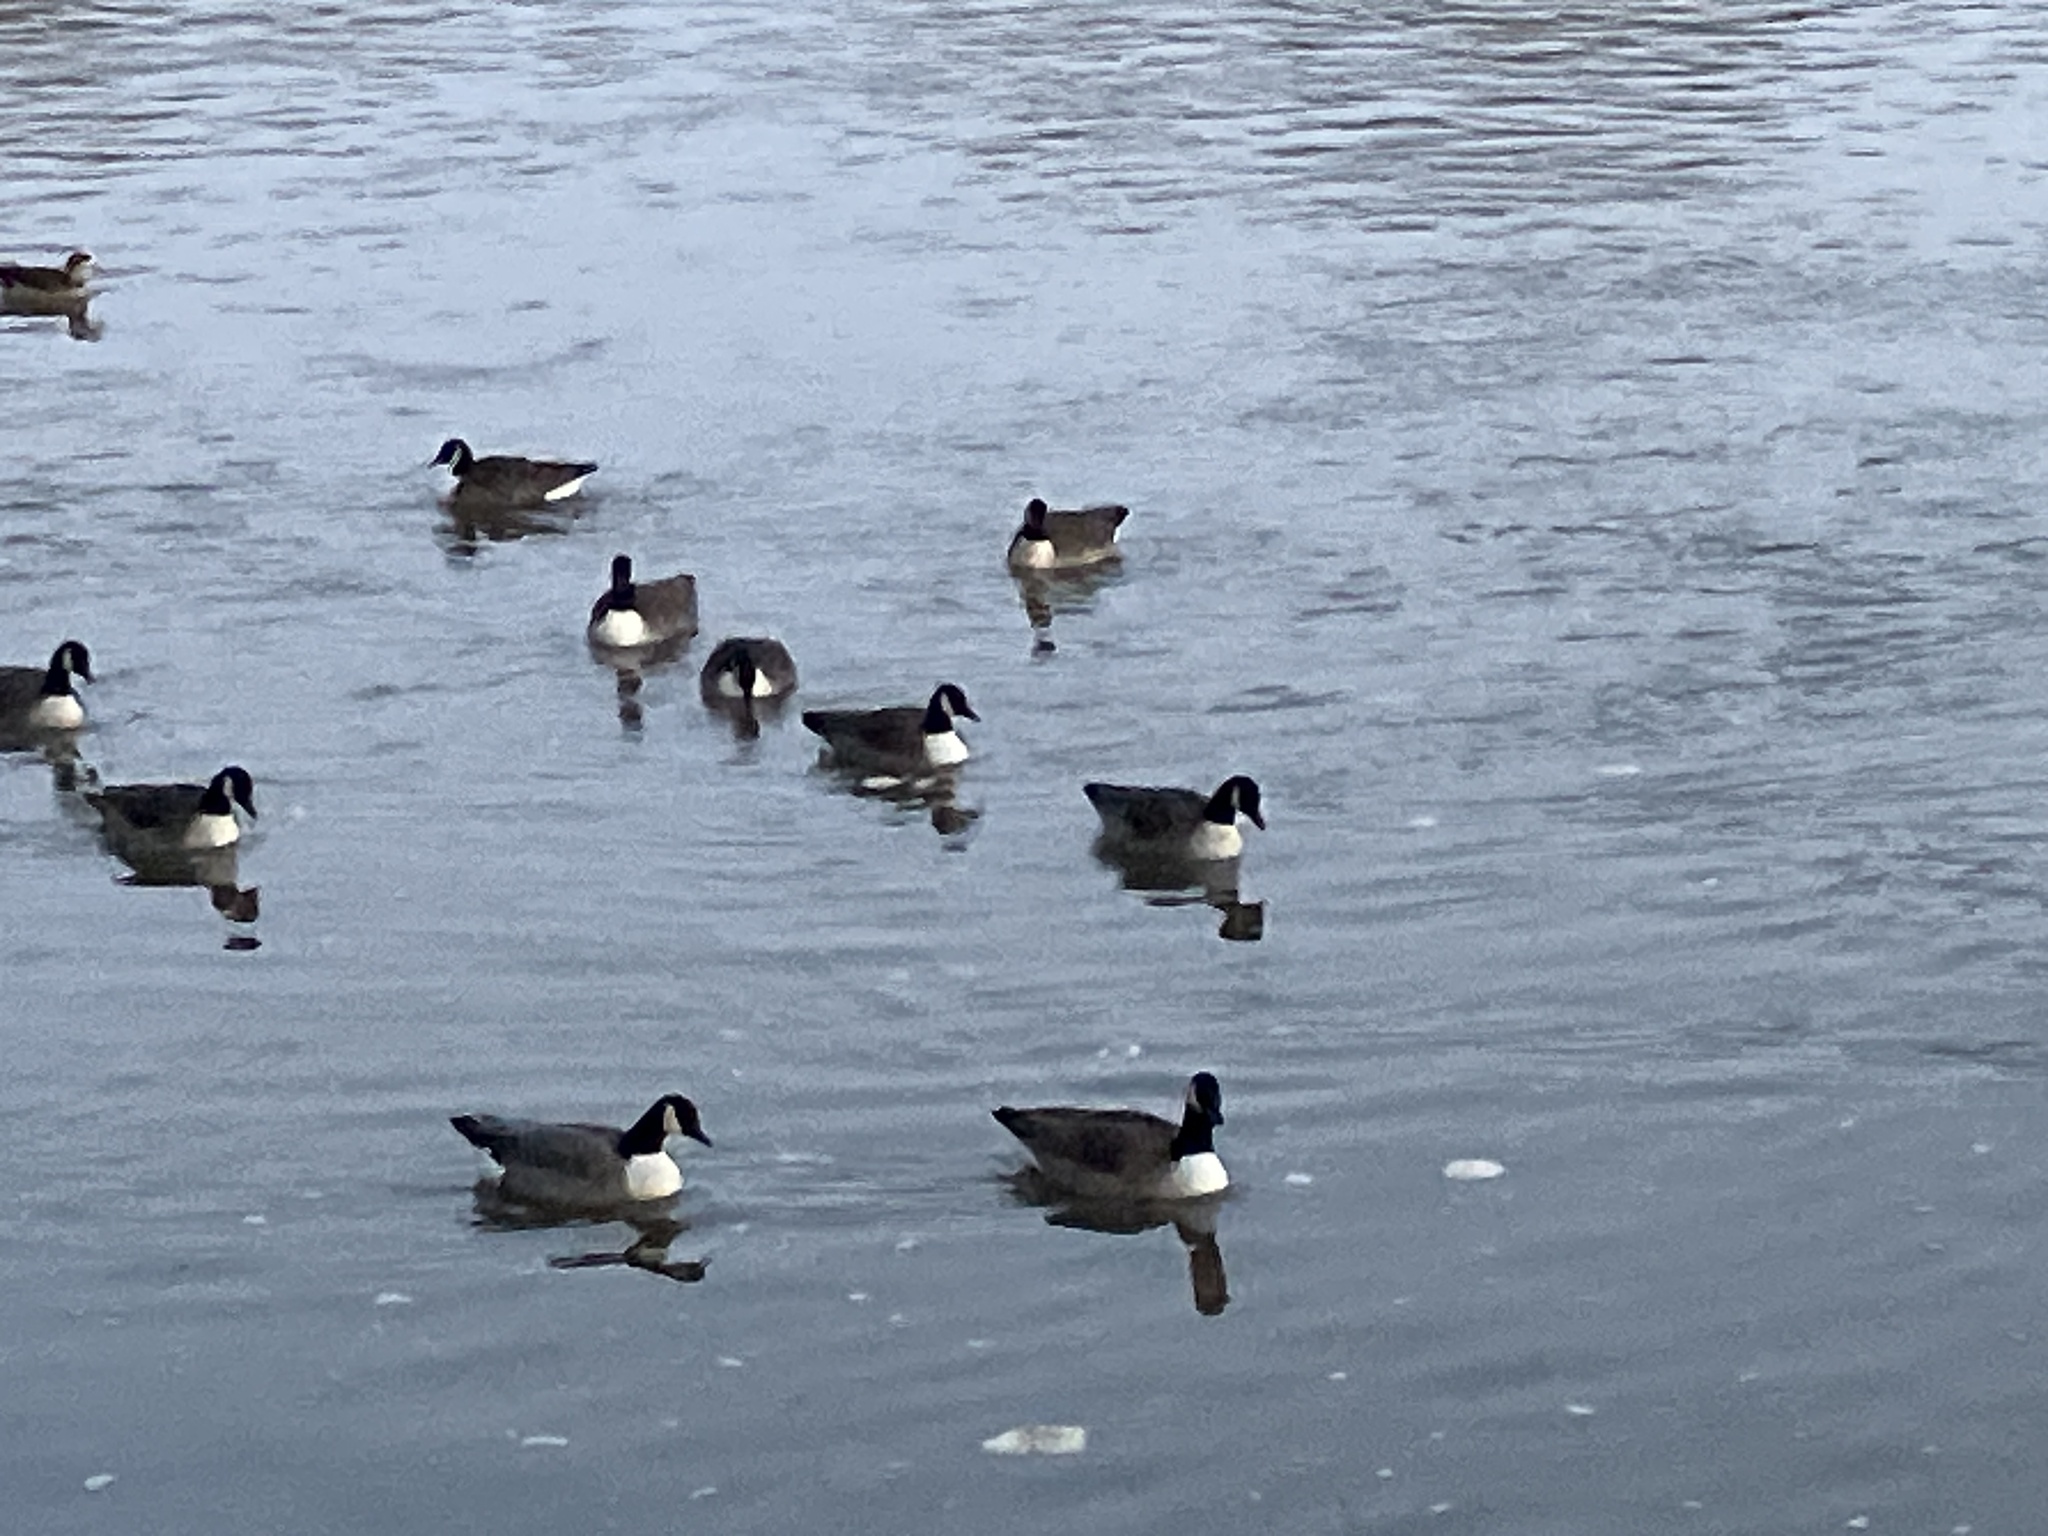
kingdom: Animalia
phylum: Chordata
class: Aves
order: Anseriformes
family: Anatidae
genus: Branta
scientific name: Branta canadensis
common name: Canada goose
